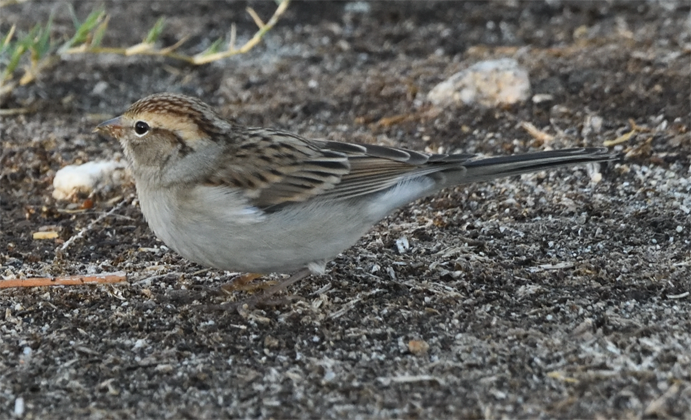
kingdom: Animalia
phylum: Chordata
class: Aves
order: Passeriformes
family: Passerellidae
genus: Spizella
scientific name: Spizella passerina
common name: Chipping sparrow
